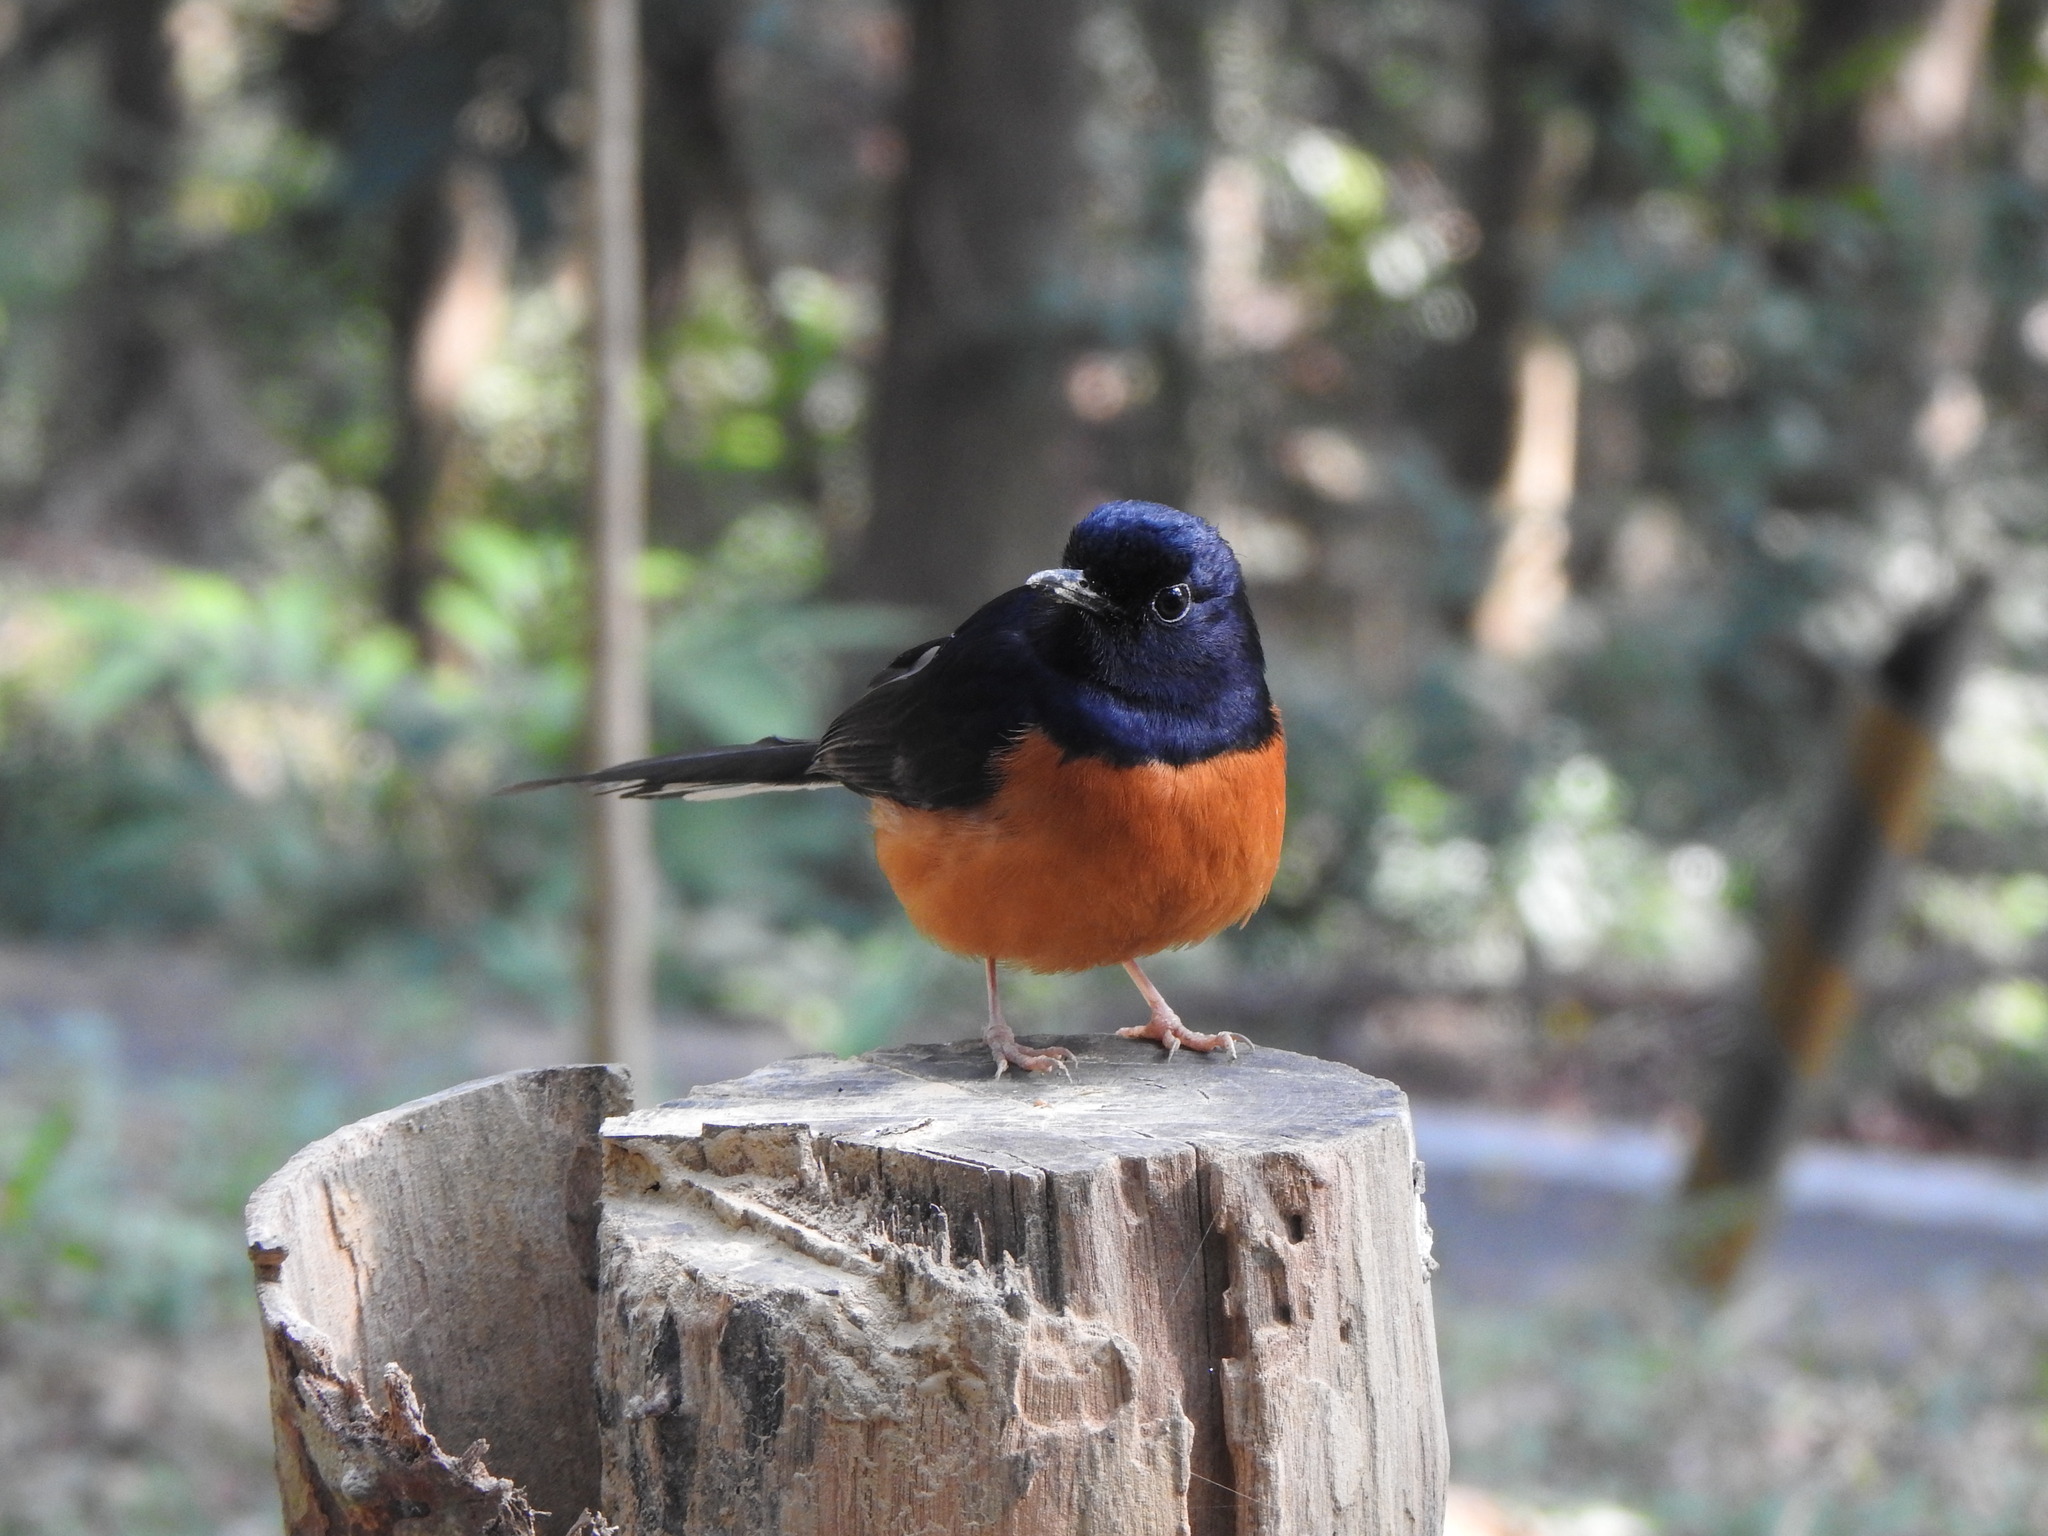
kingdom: Animalia
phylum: Chordata
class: Aves
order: Passeriformes
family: Muscicapidae
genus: Copsychus
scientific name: Copsychus malabaricus
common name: White-rumped shama
